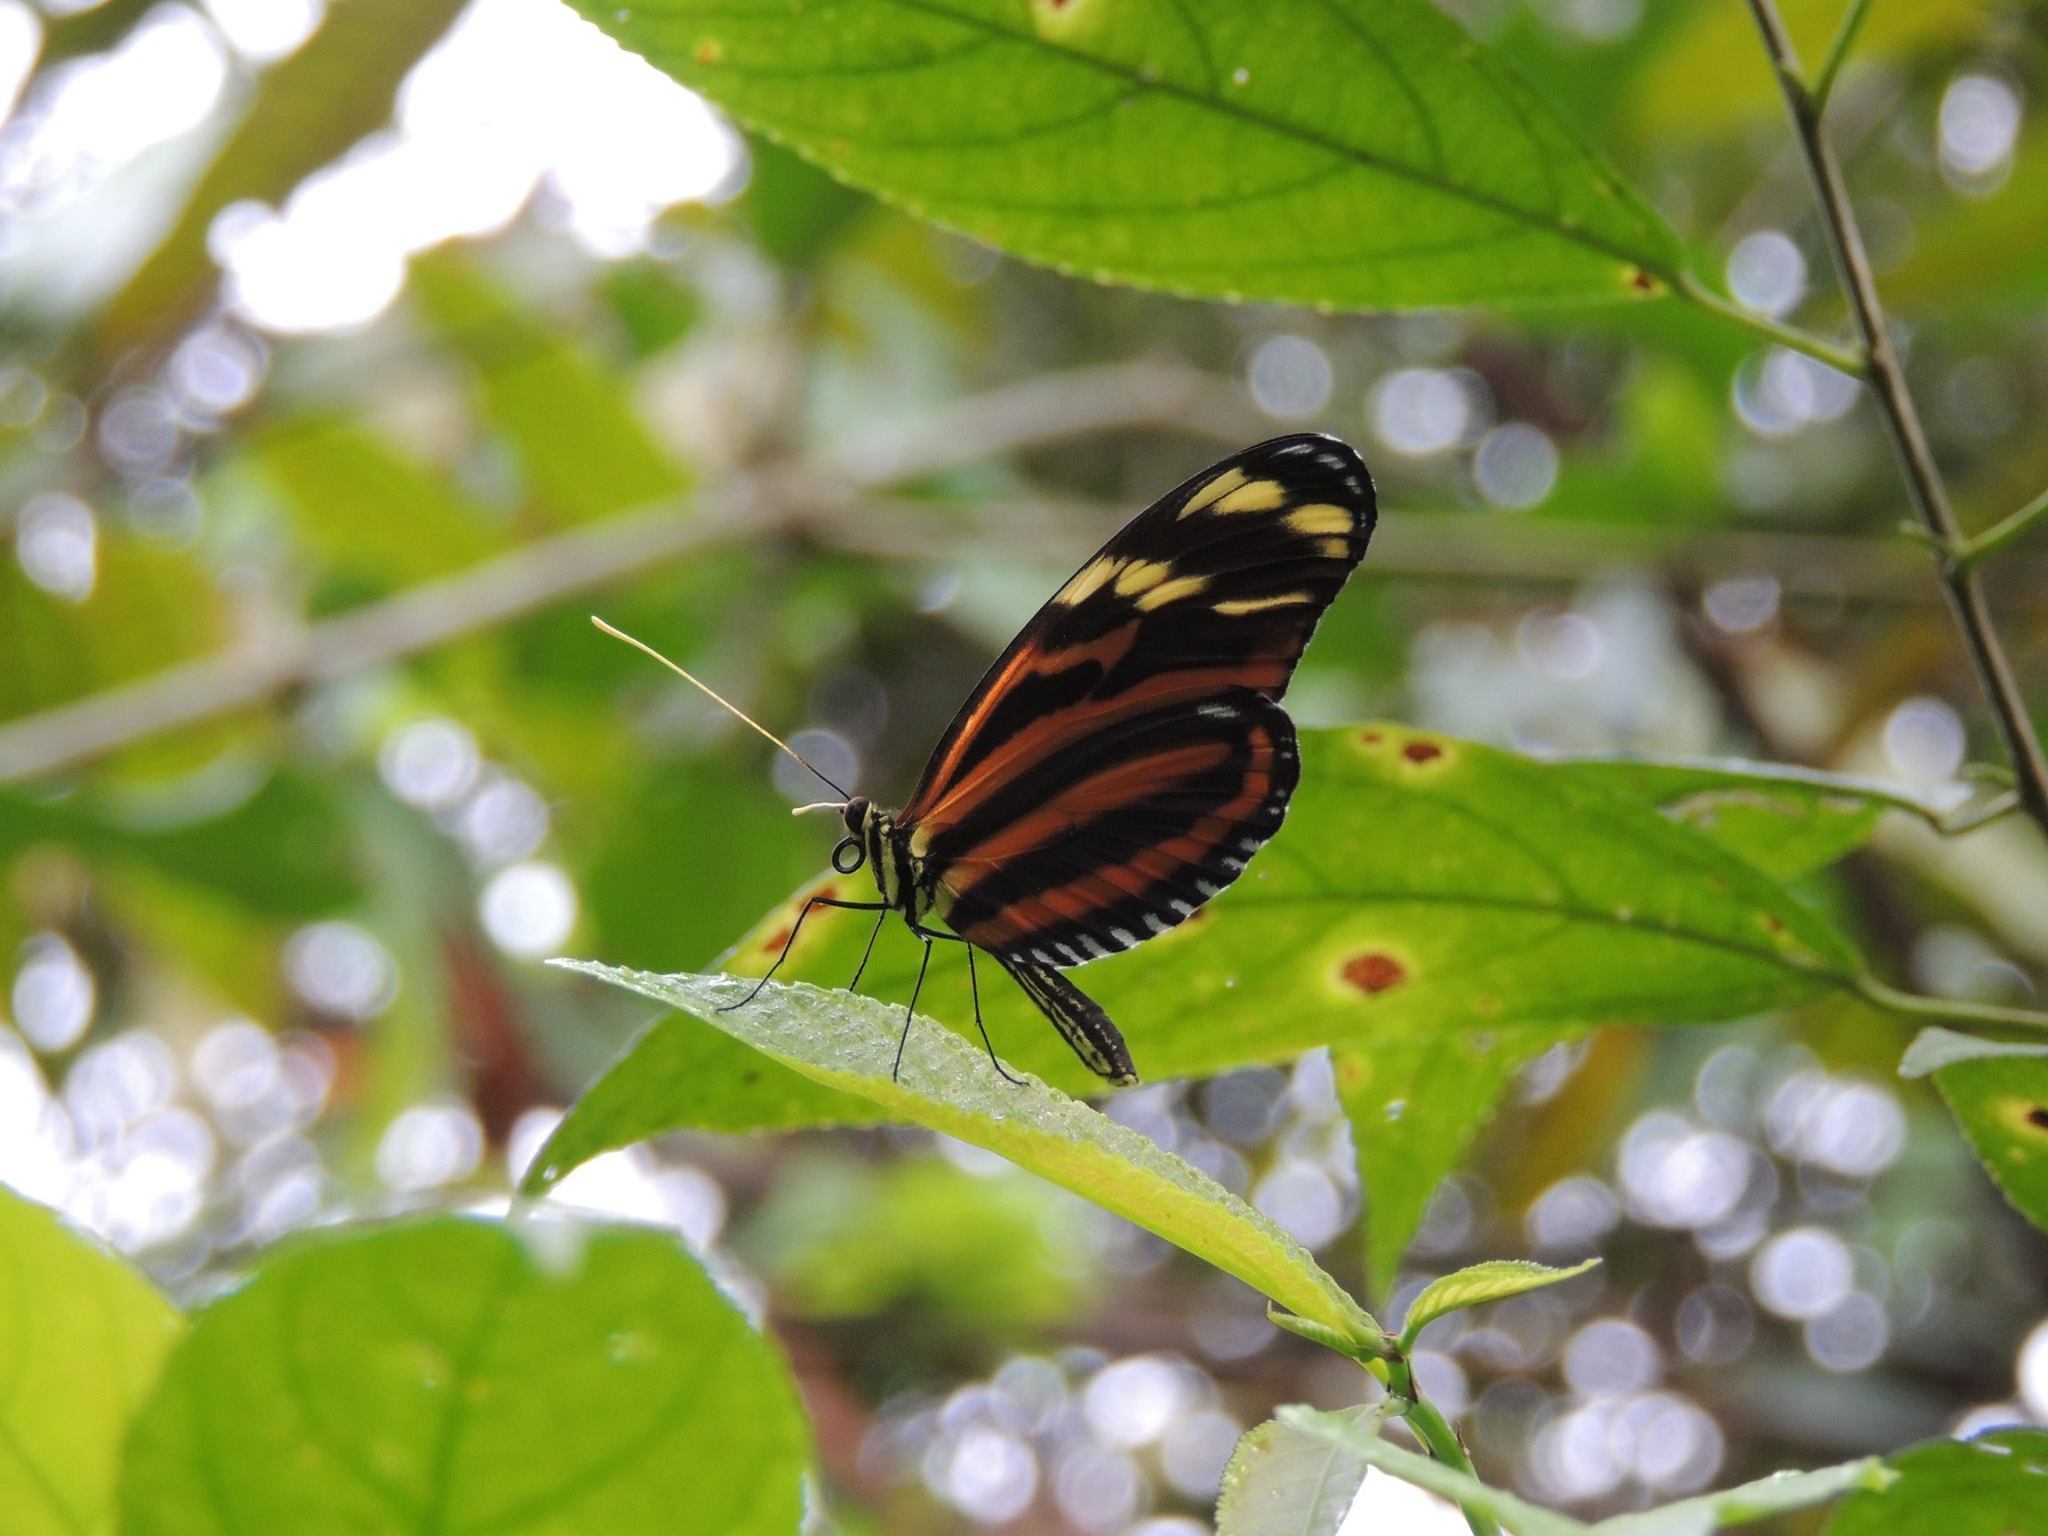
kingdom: Animalia
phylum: Arthropoda
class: Insecta
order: Lepidoptera
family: Nymphalidae
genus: Heliconius
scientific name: Heliconius ismenius
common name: Ismenius tiger
